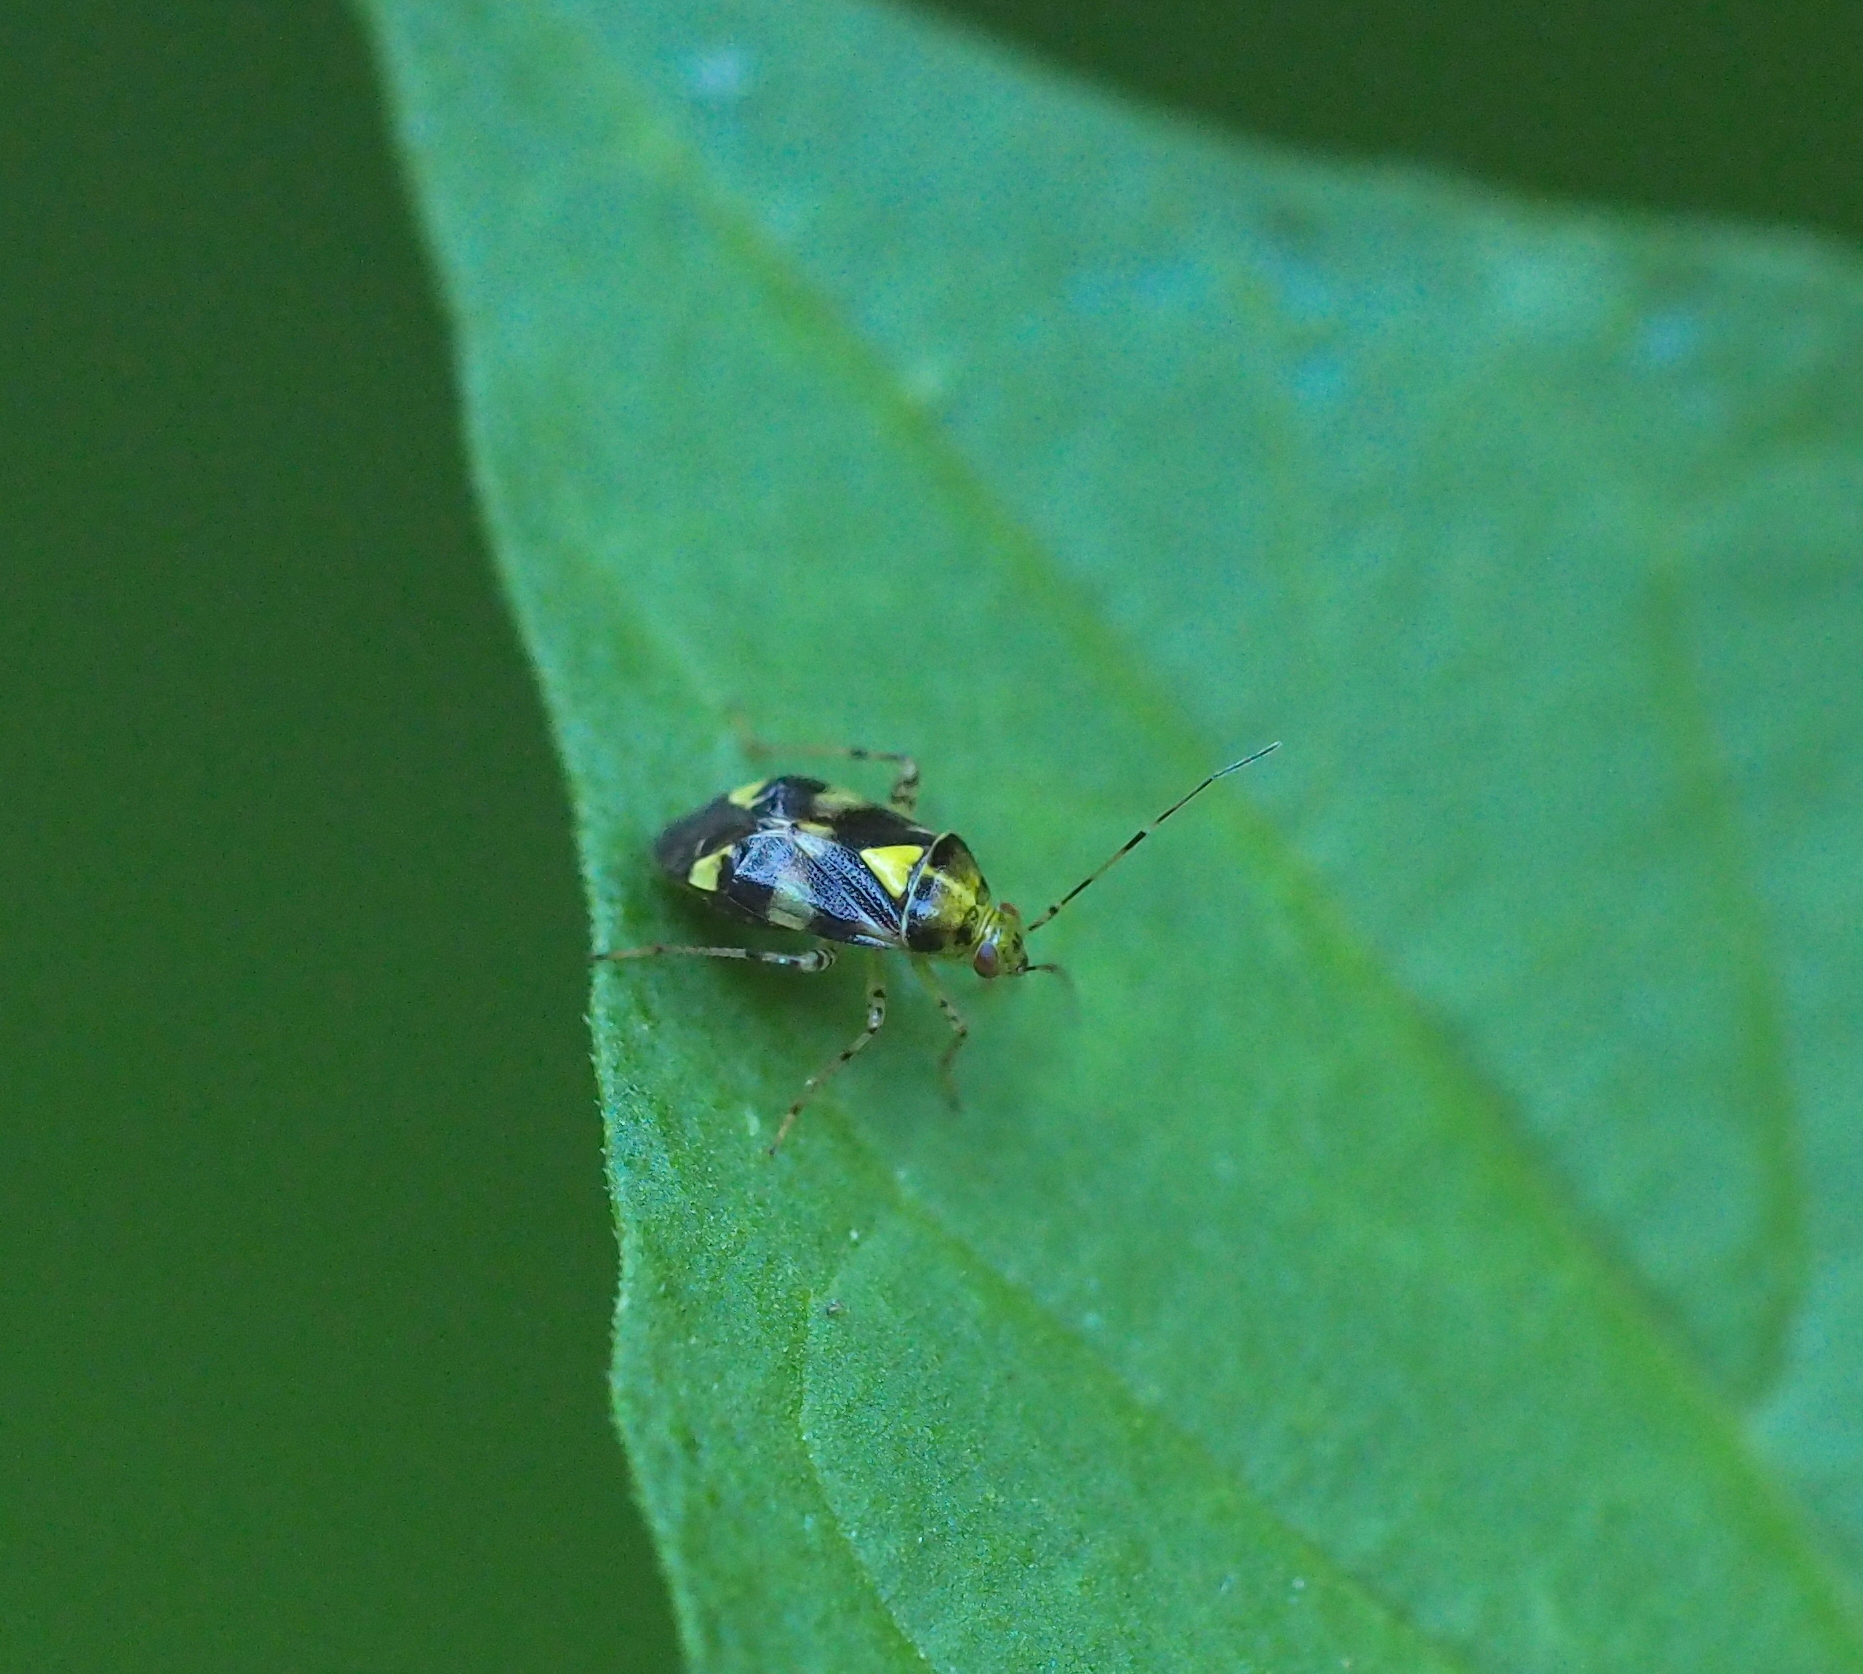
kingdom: Animalia
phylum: Arthropoda
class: Insecta
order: Hemiptera
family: Miridae
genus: Liocoris
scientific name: Liocoris tripustulatus
